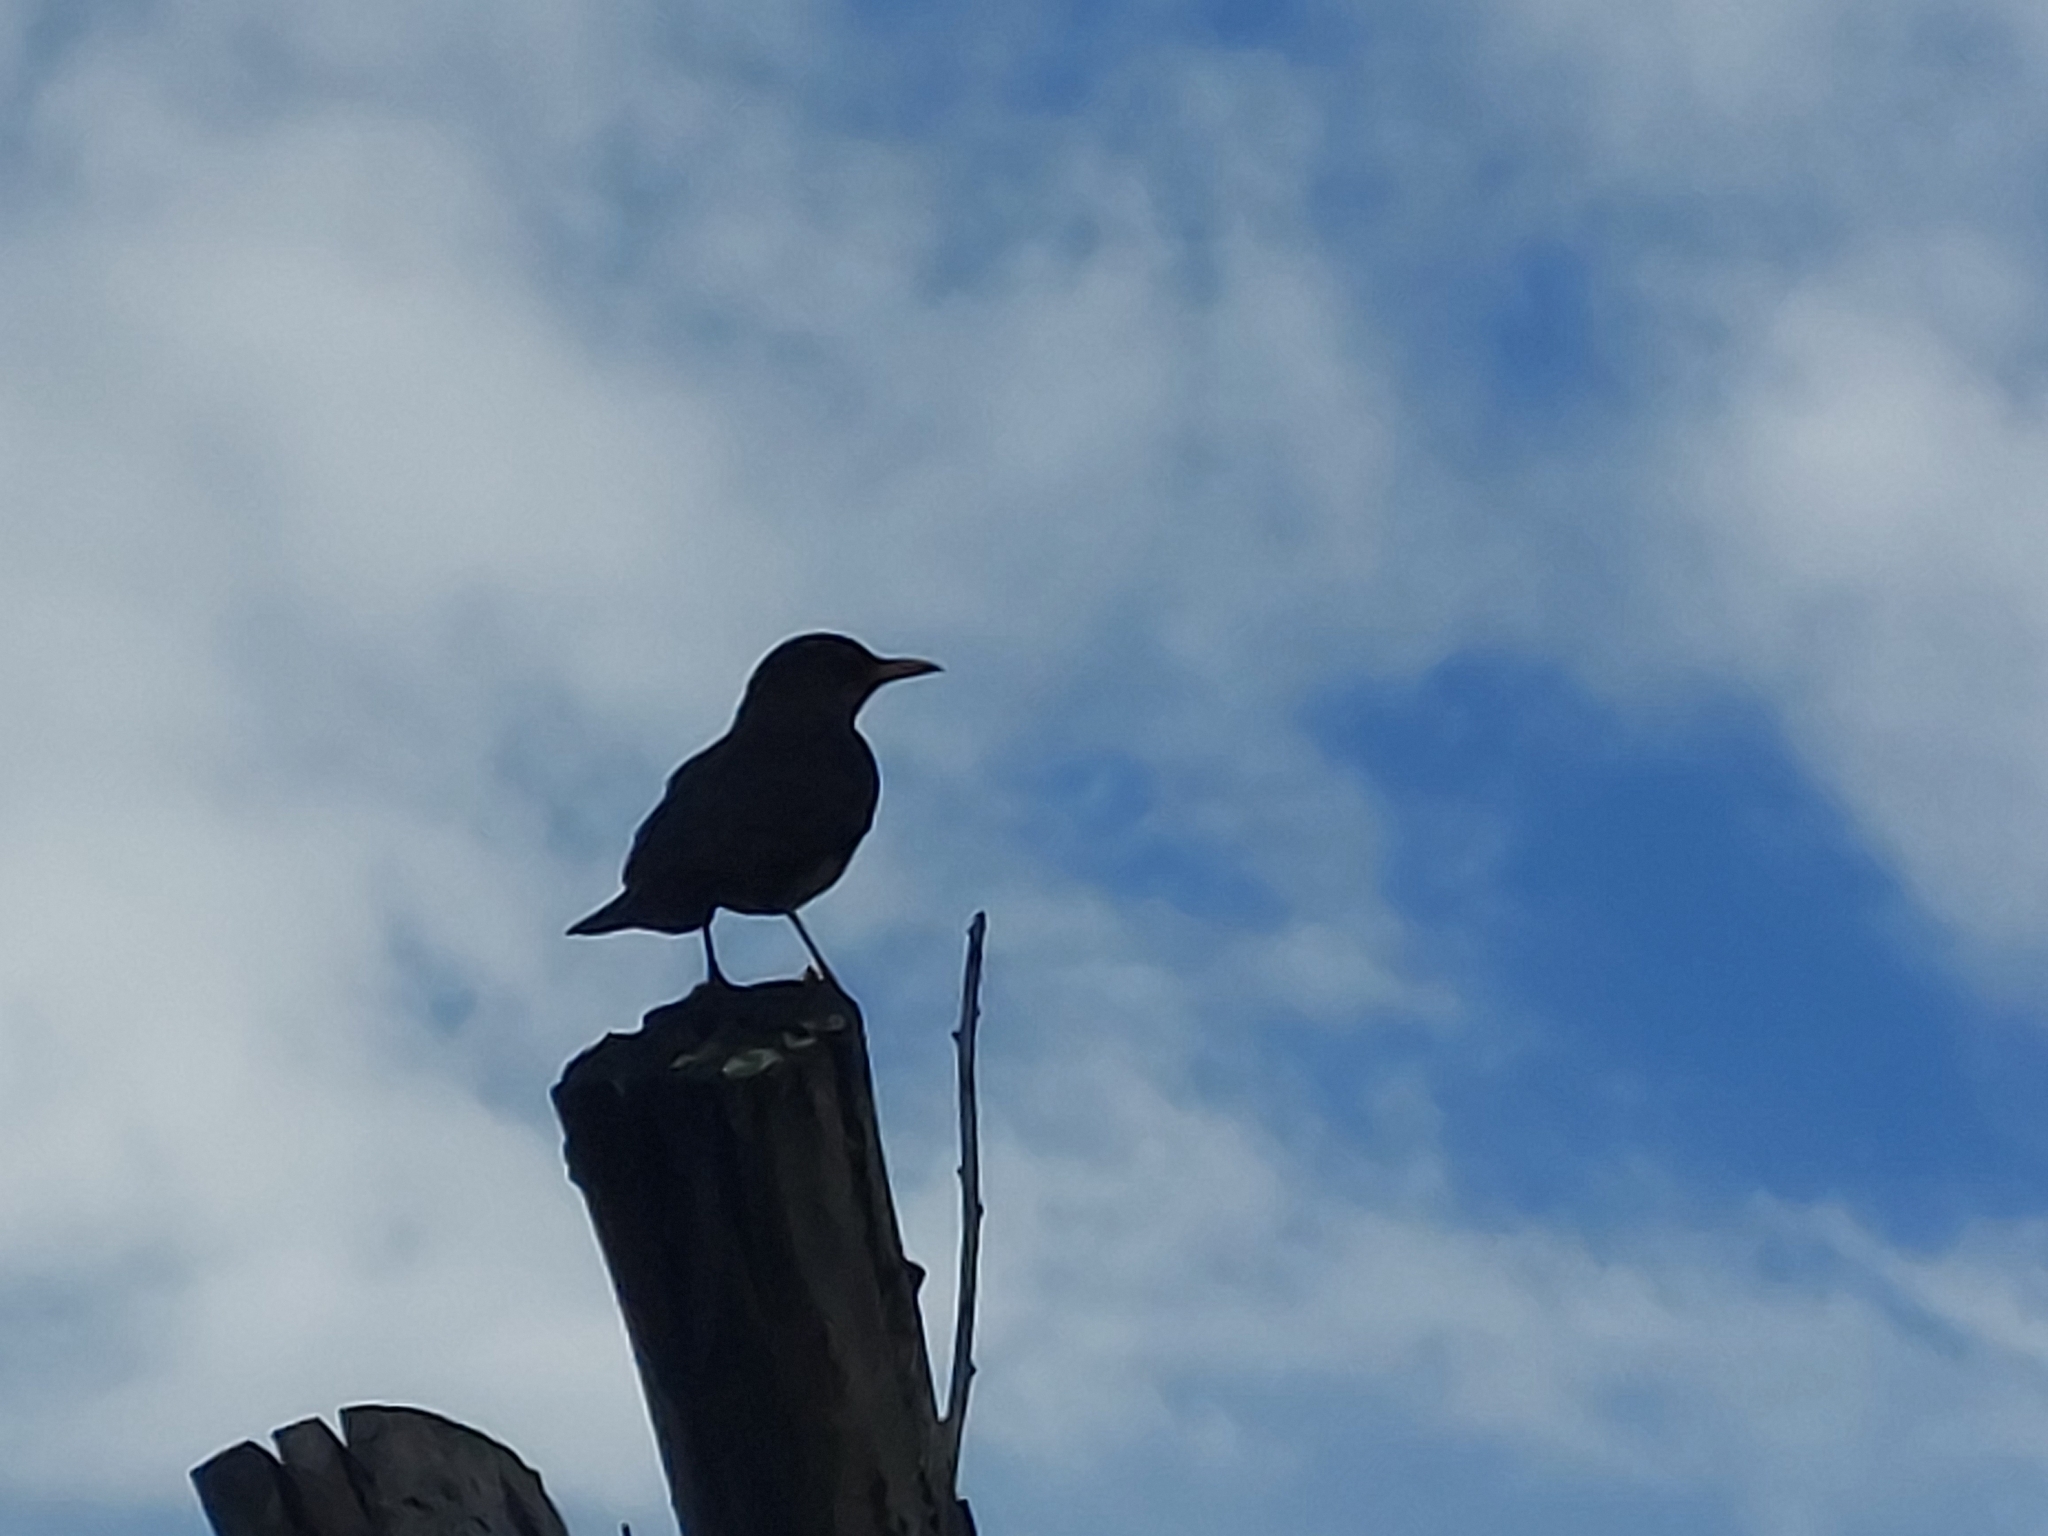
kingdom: Animalia
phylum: Chordata
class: Aves
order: Passeriformes
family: Turdidae
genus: Turdus
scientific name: Turdus smithi
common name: Karoo thrush
